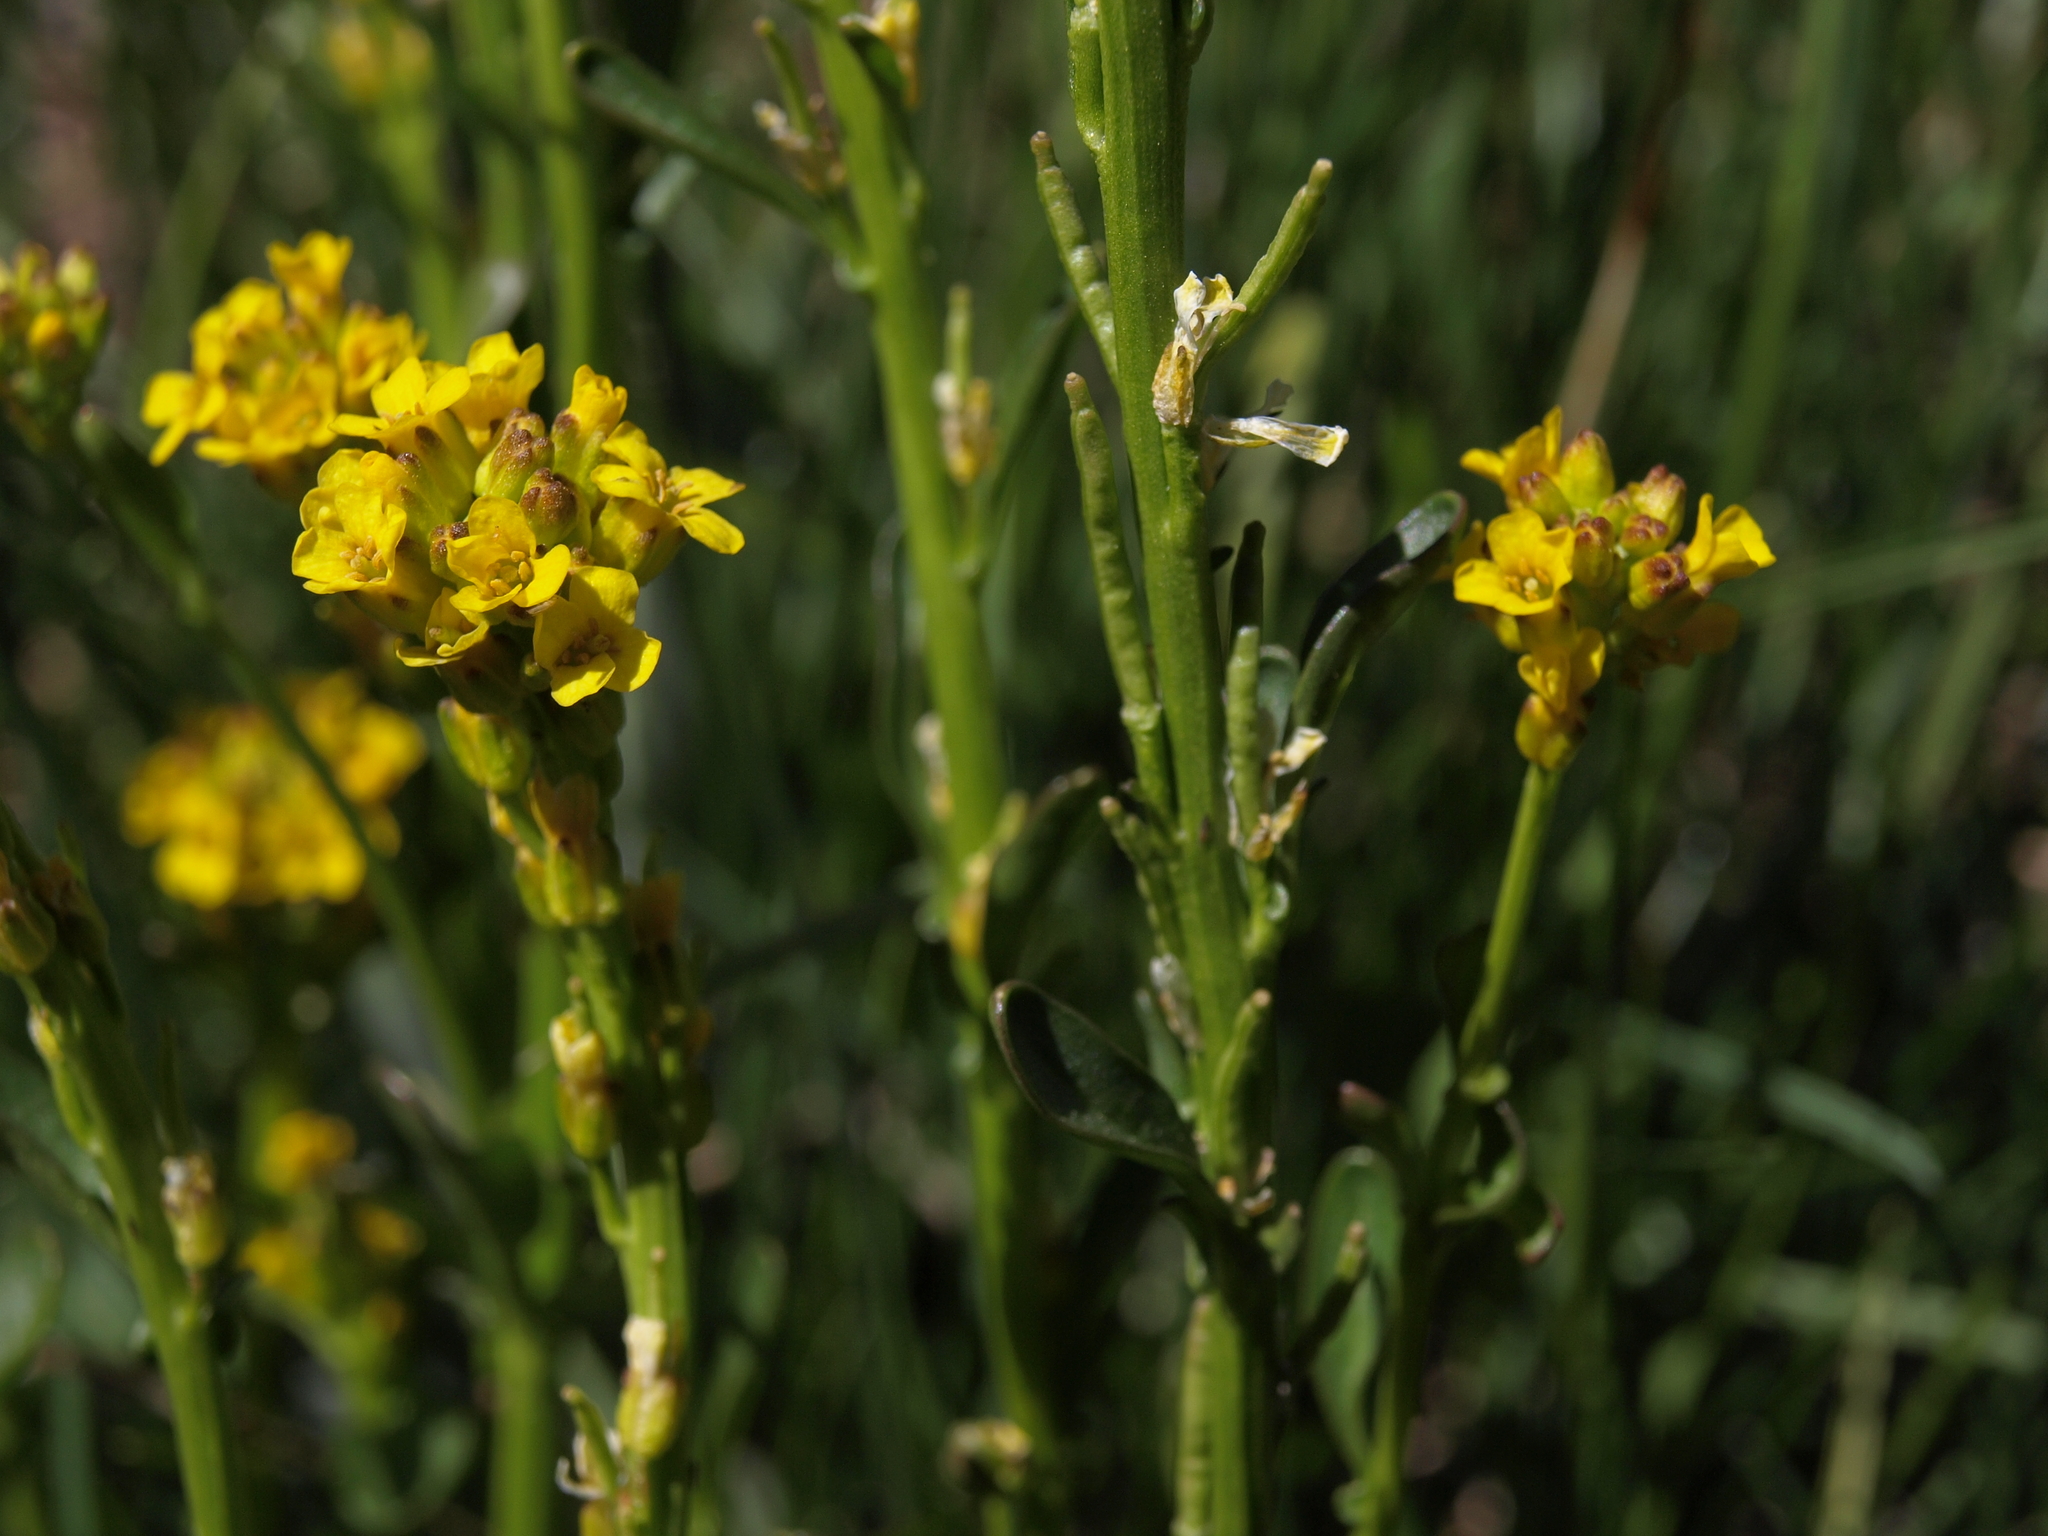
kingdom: Plantae
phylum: Tracheophyta
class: Magnoliopsida
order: Brassicales
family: Brassicaceae
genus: Barbarea
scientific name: Barbarea orthoceras
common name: American wintercress
